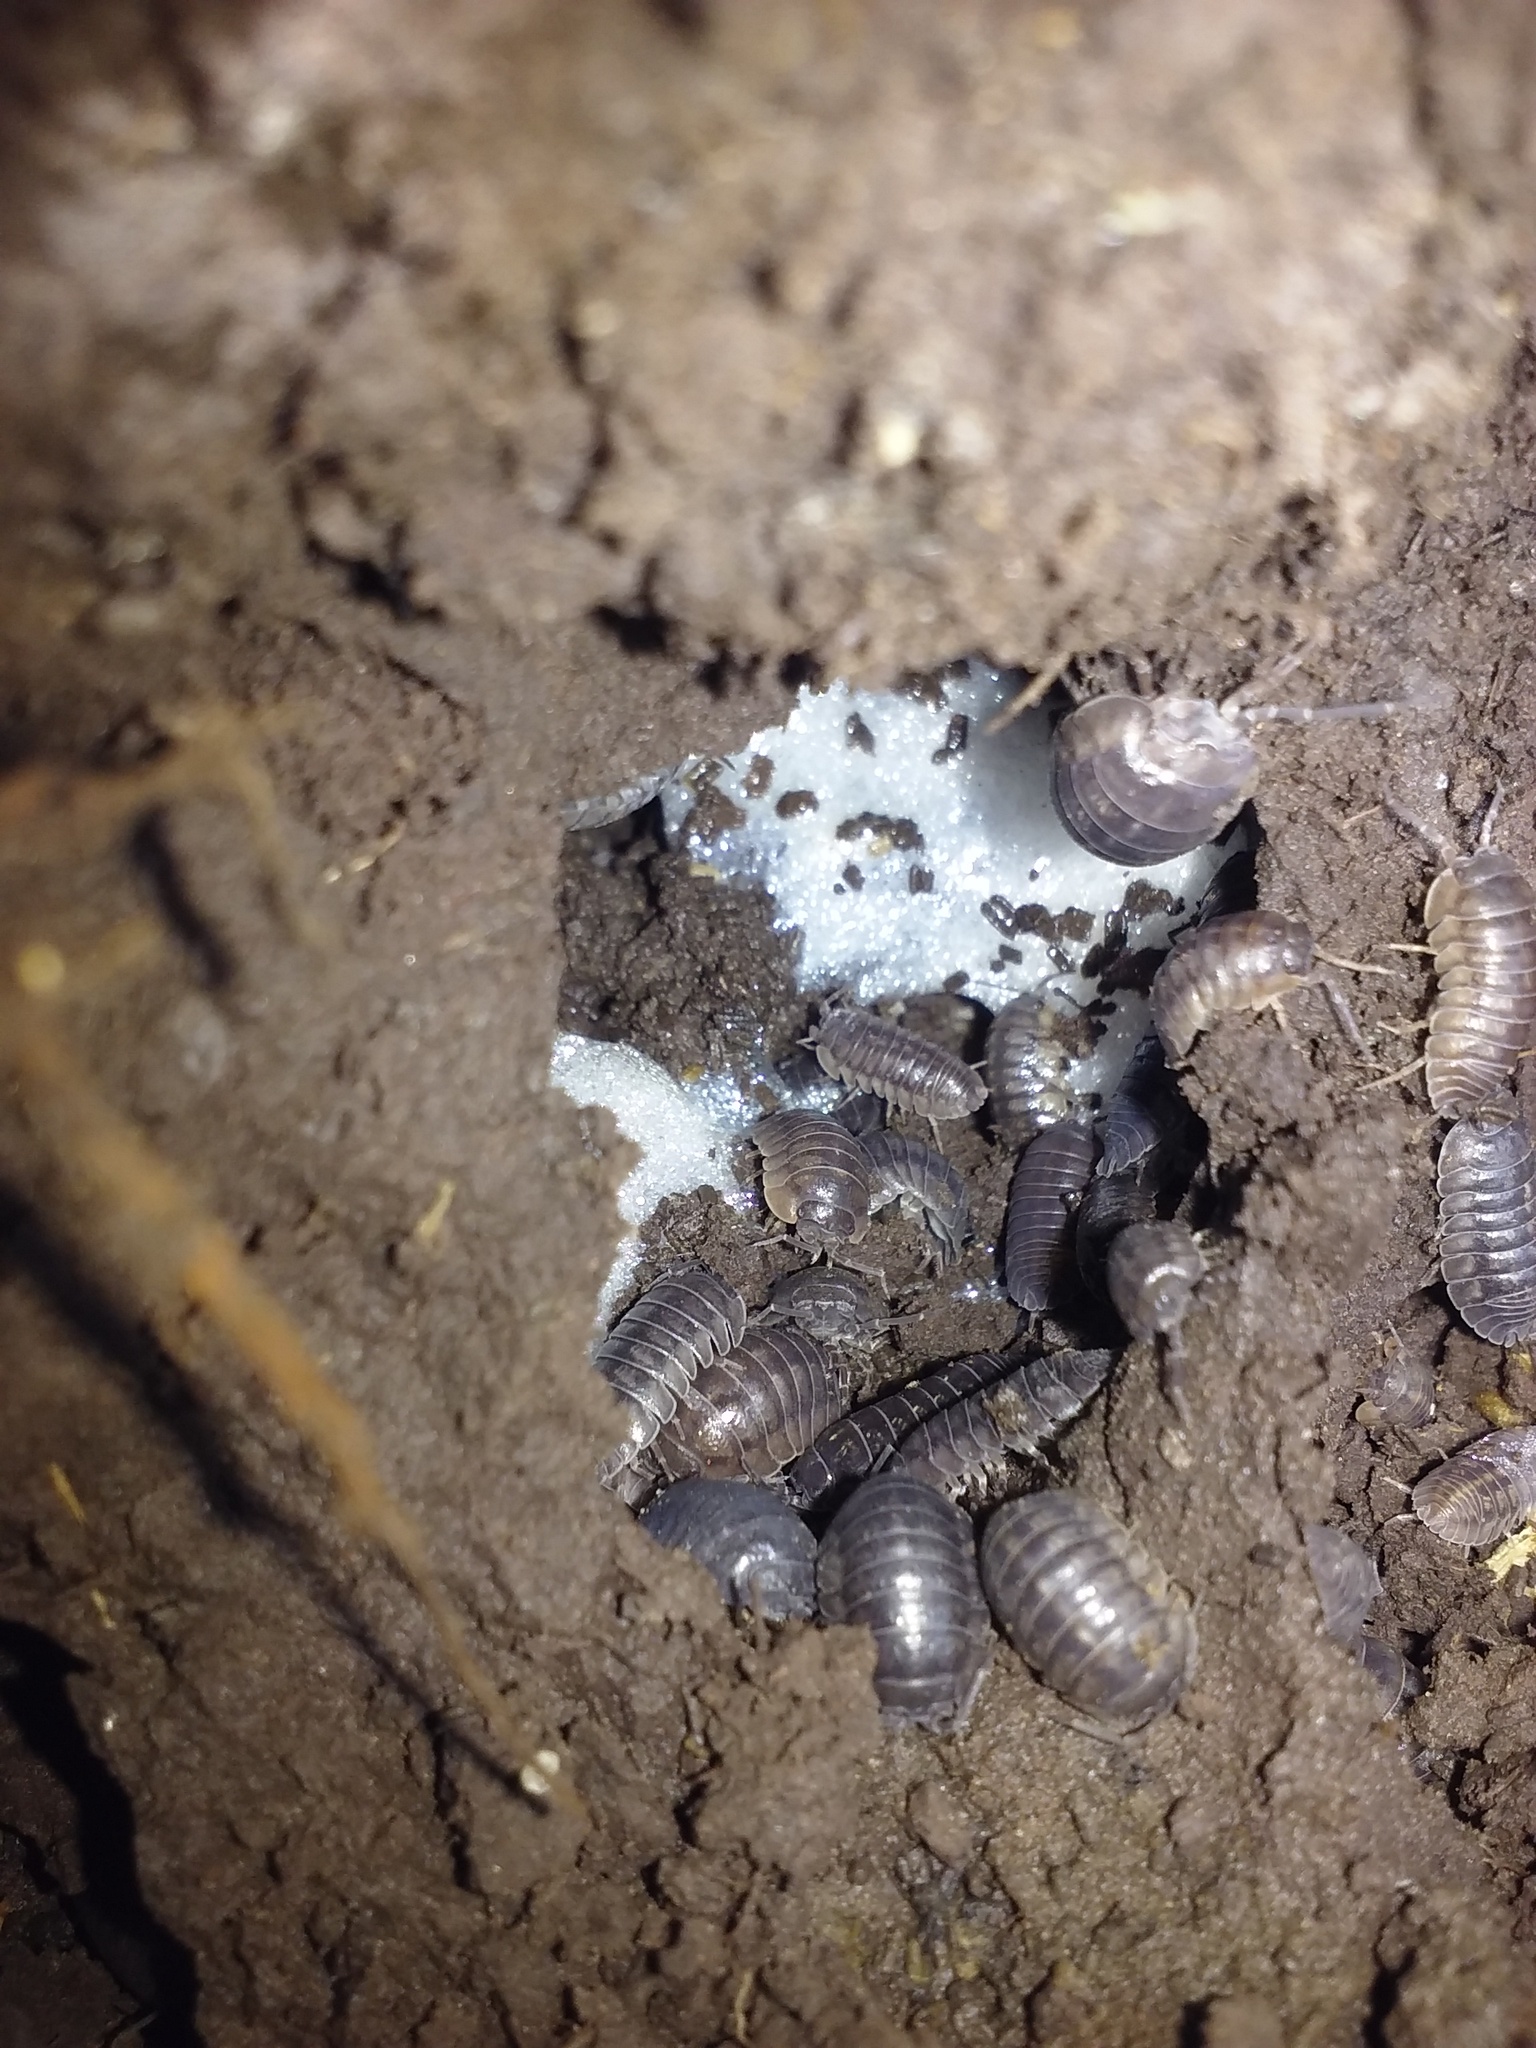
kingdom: Animalia
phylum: Arthropoda
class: Malacostraca
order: Isopoda
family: Armadillidiidae
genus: Armadillidium
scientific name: Armadillidium nasatum
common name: Isopod
